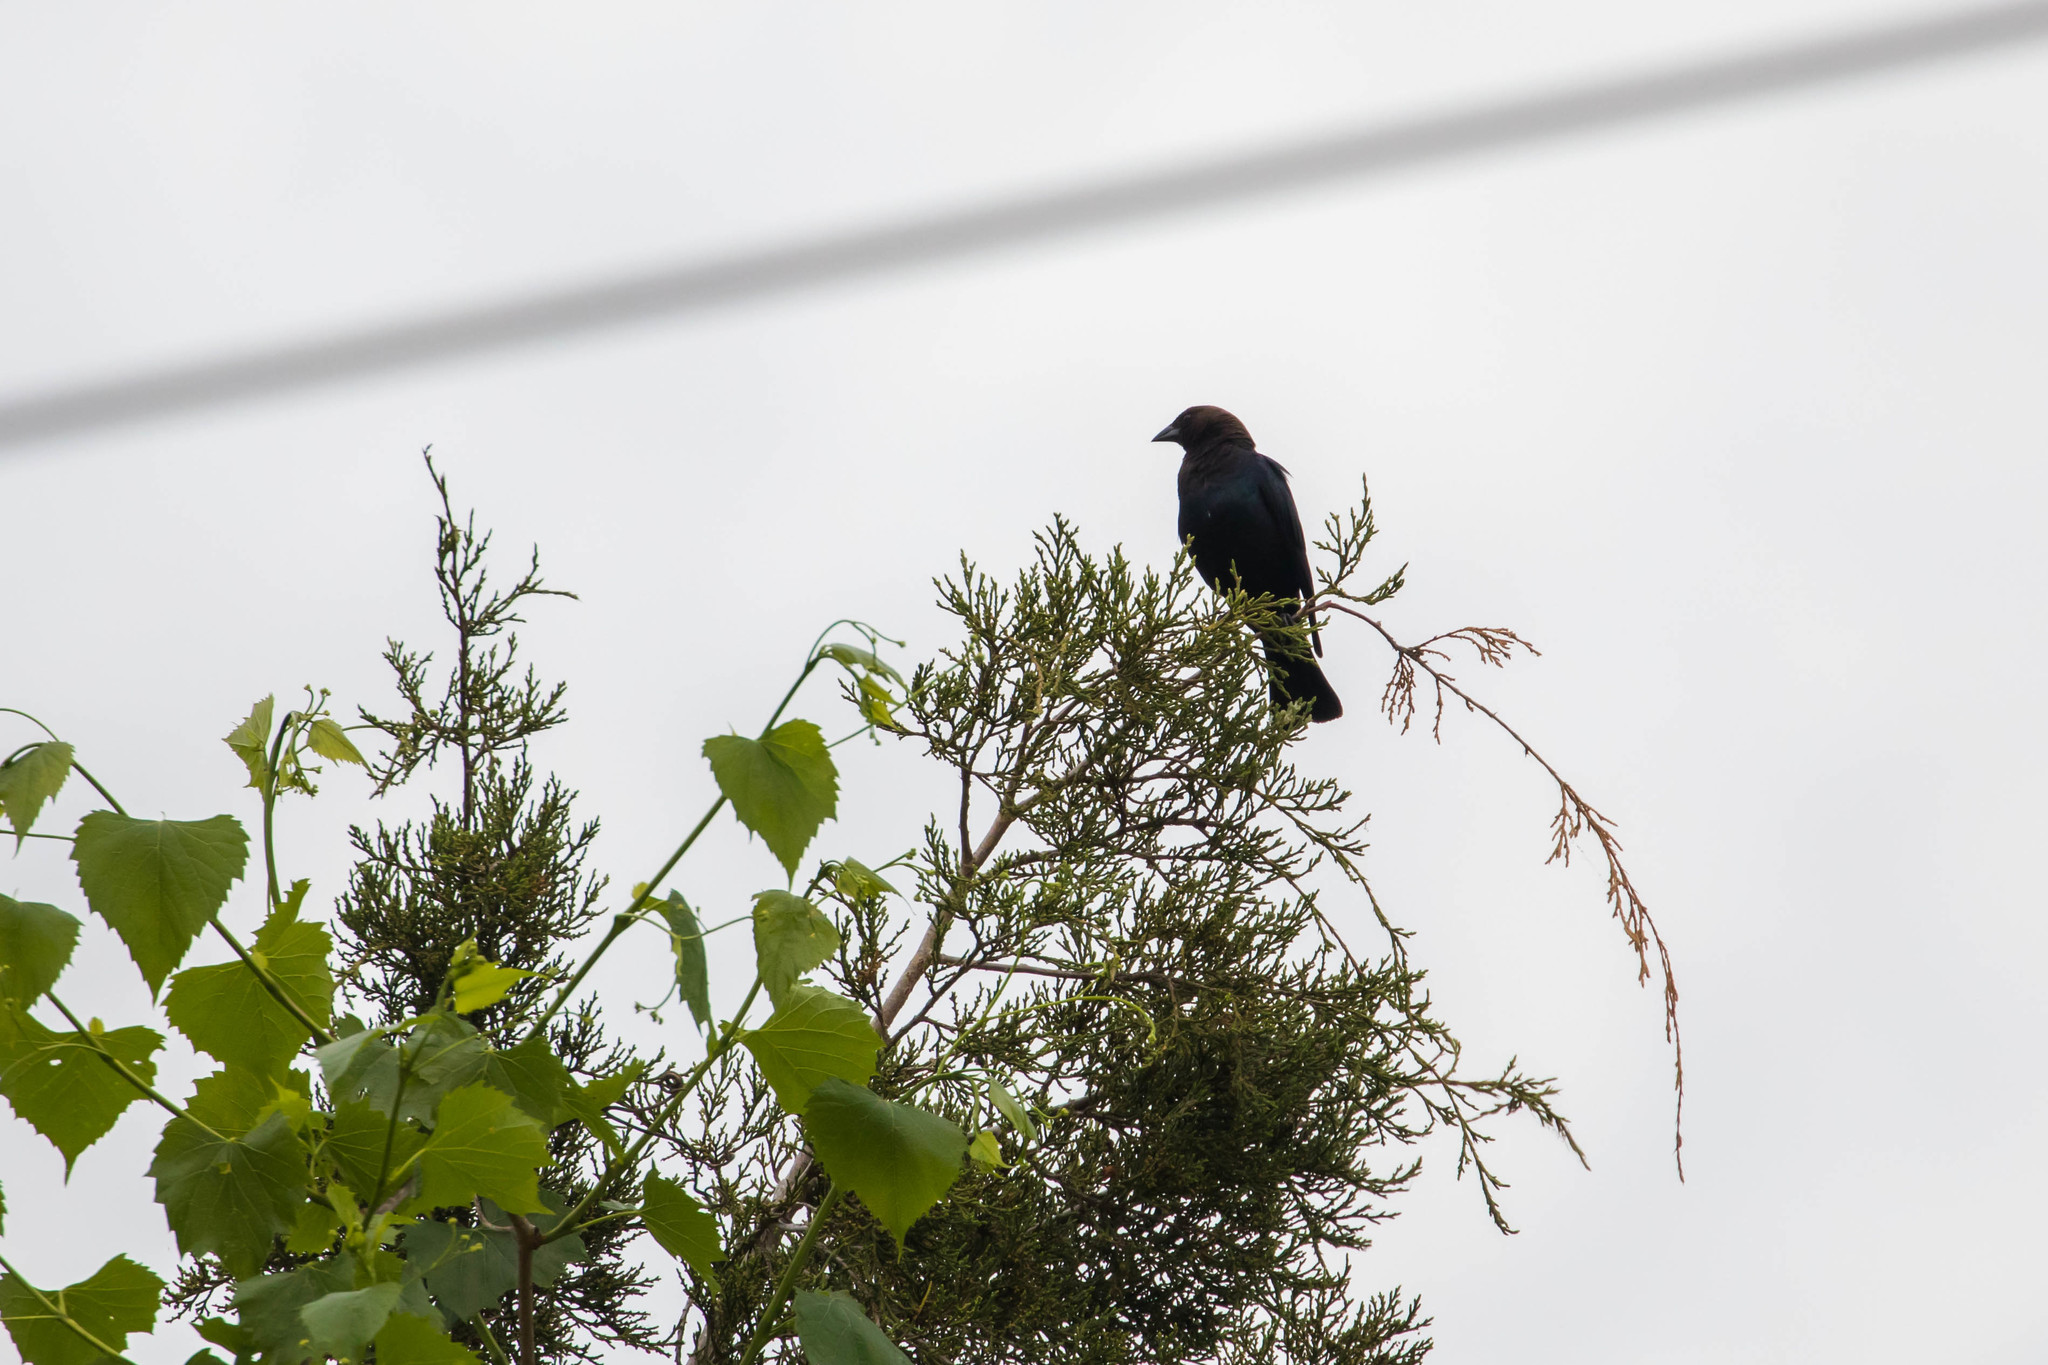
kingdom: Animalia
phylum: Chordata
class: Aves
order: Passeriformes
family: Icteridae
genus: Molothrus
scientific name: Molothrus ater
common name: Brown-headed cowbird
